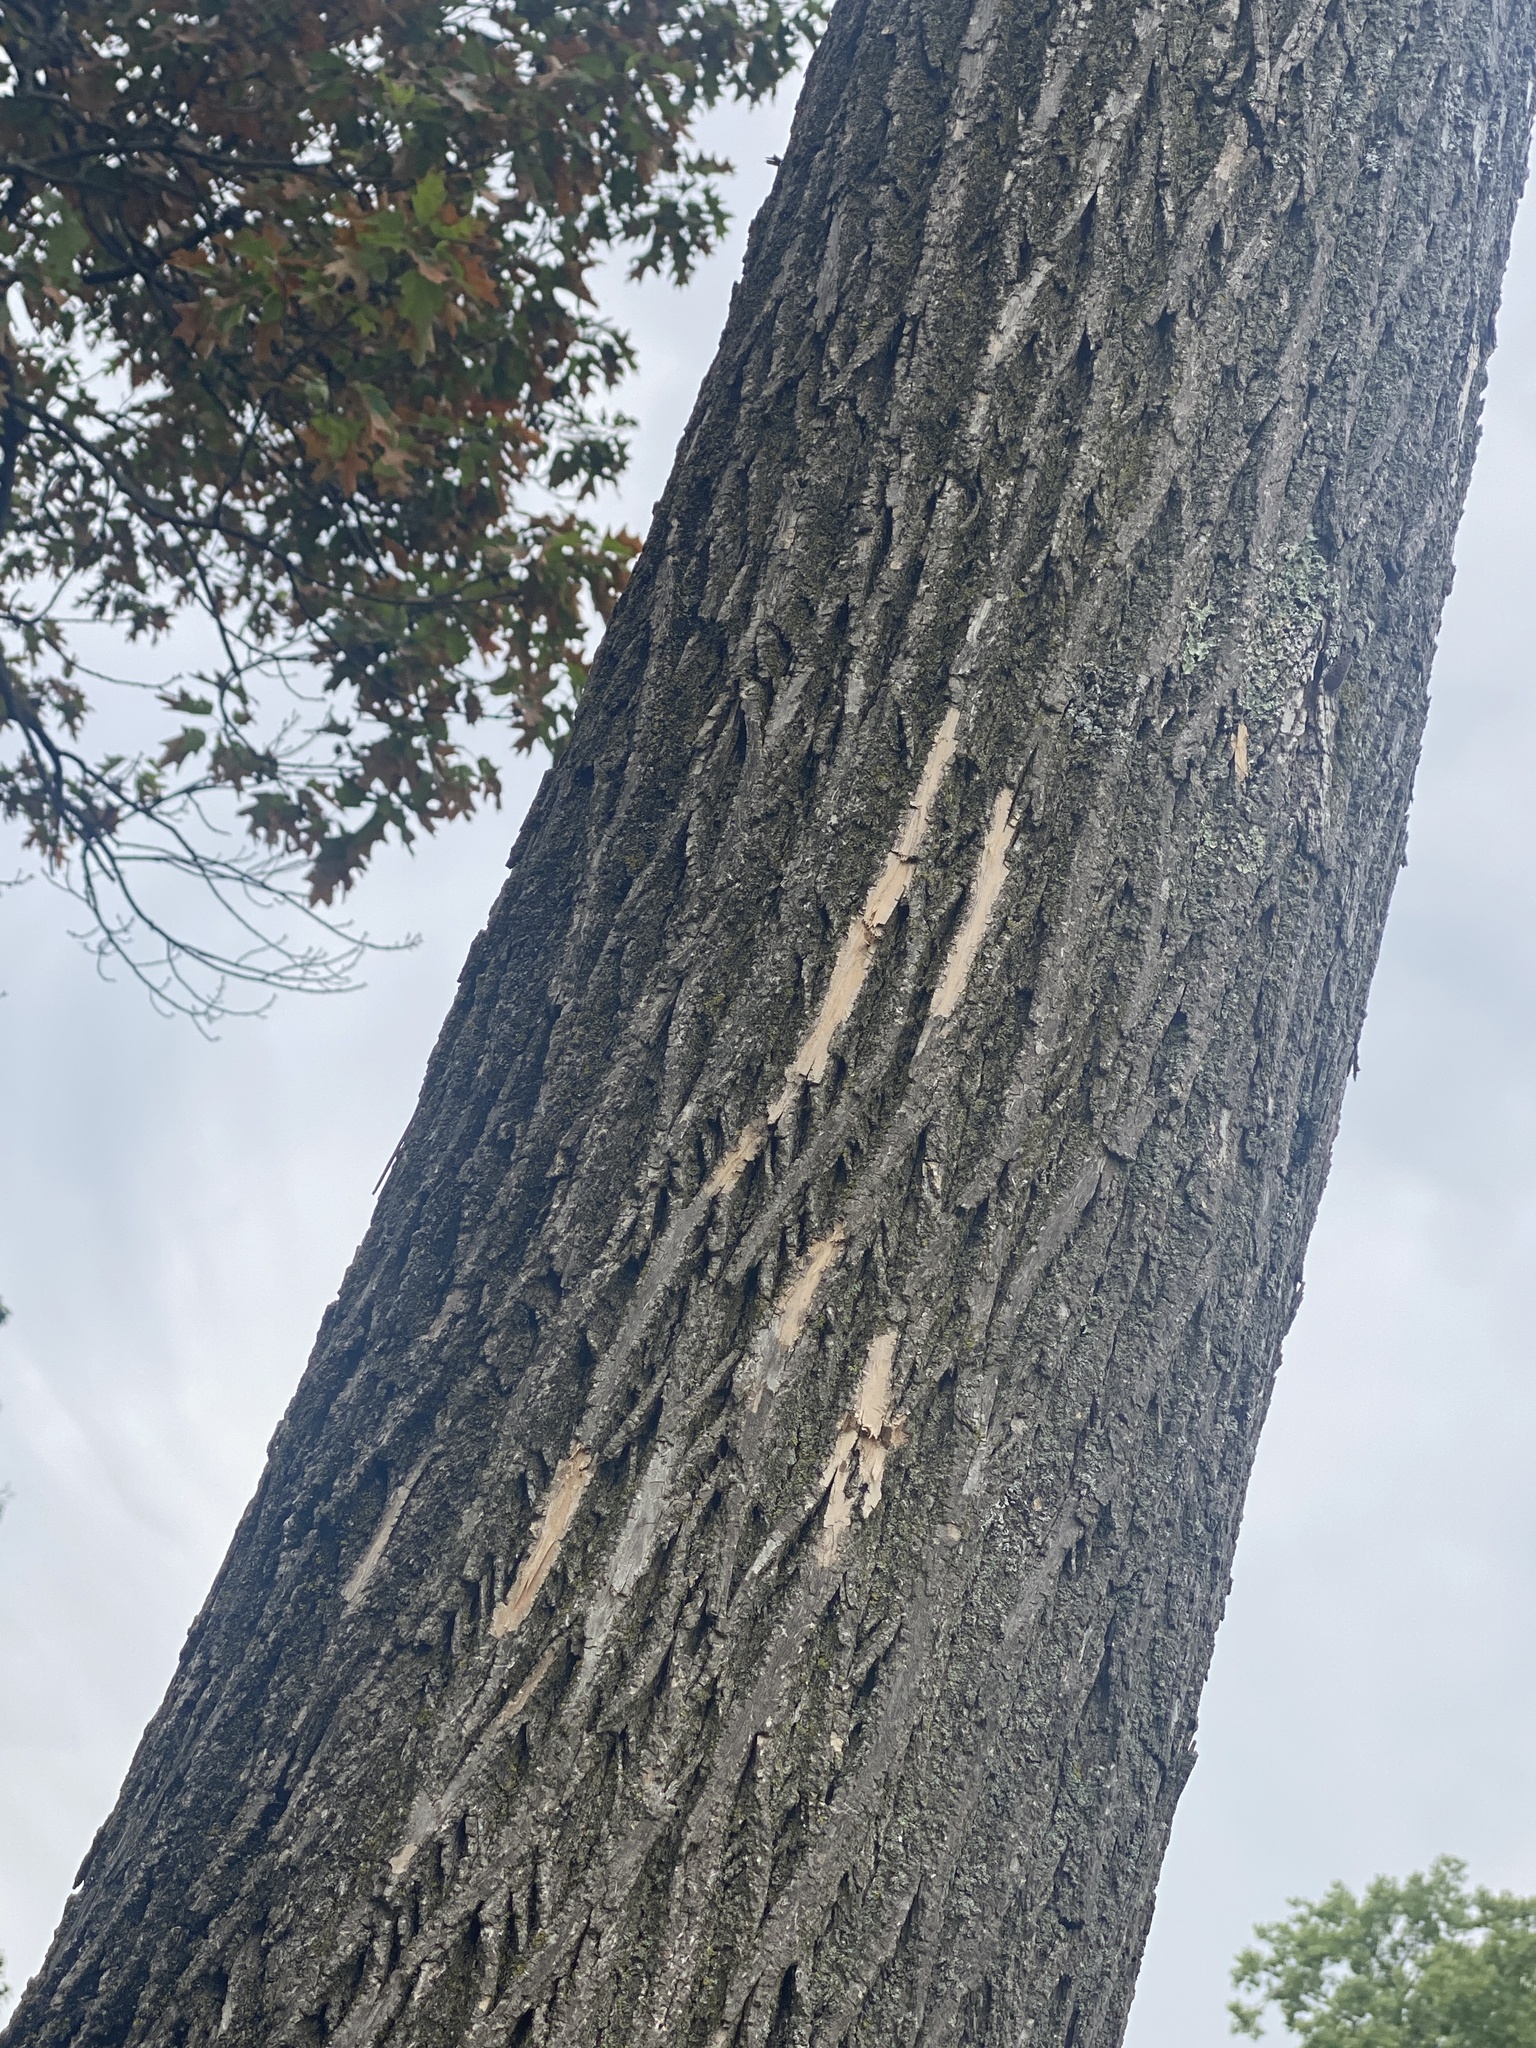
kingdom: Animalia
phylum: Arthropoda
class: Insecta
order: Coleoptera
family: Buprestidae
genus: Agrilus
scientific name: Agrilus planipennis
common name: Emerald ash borer
